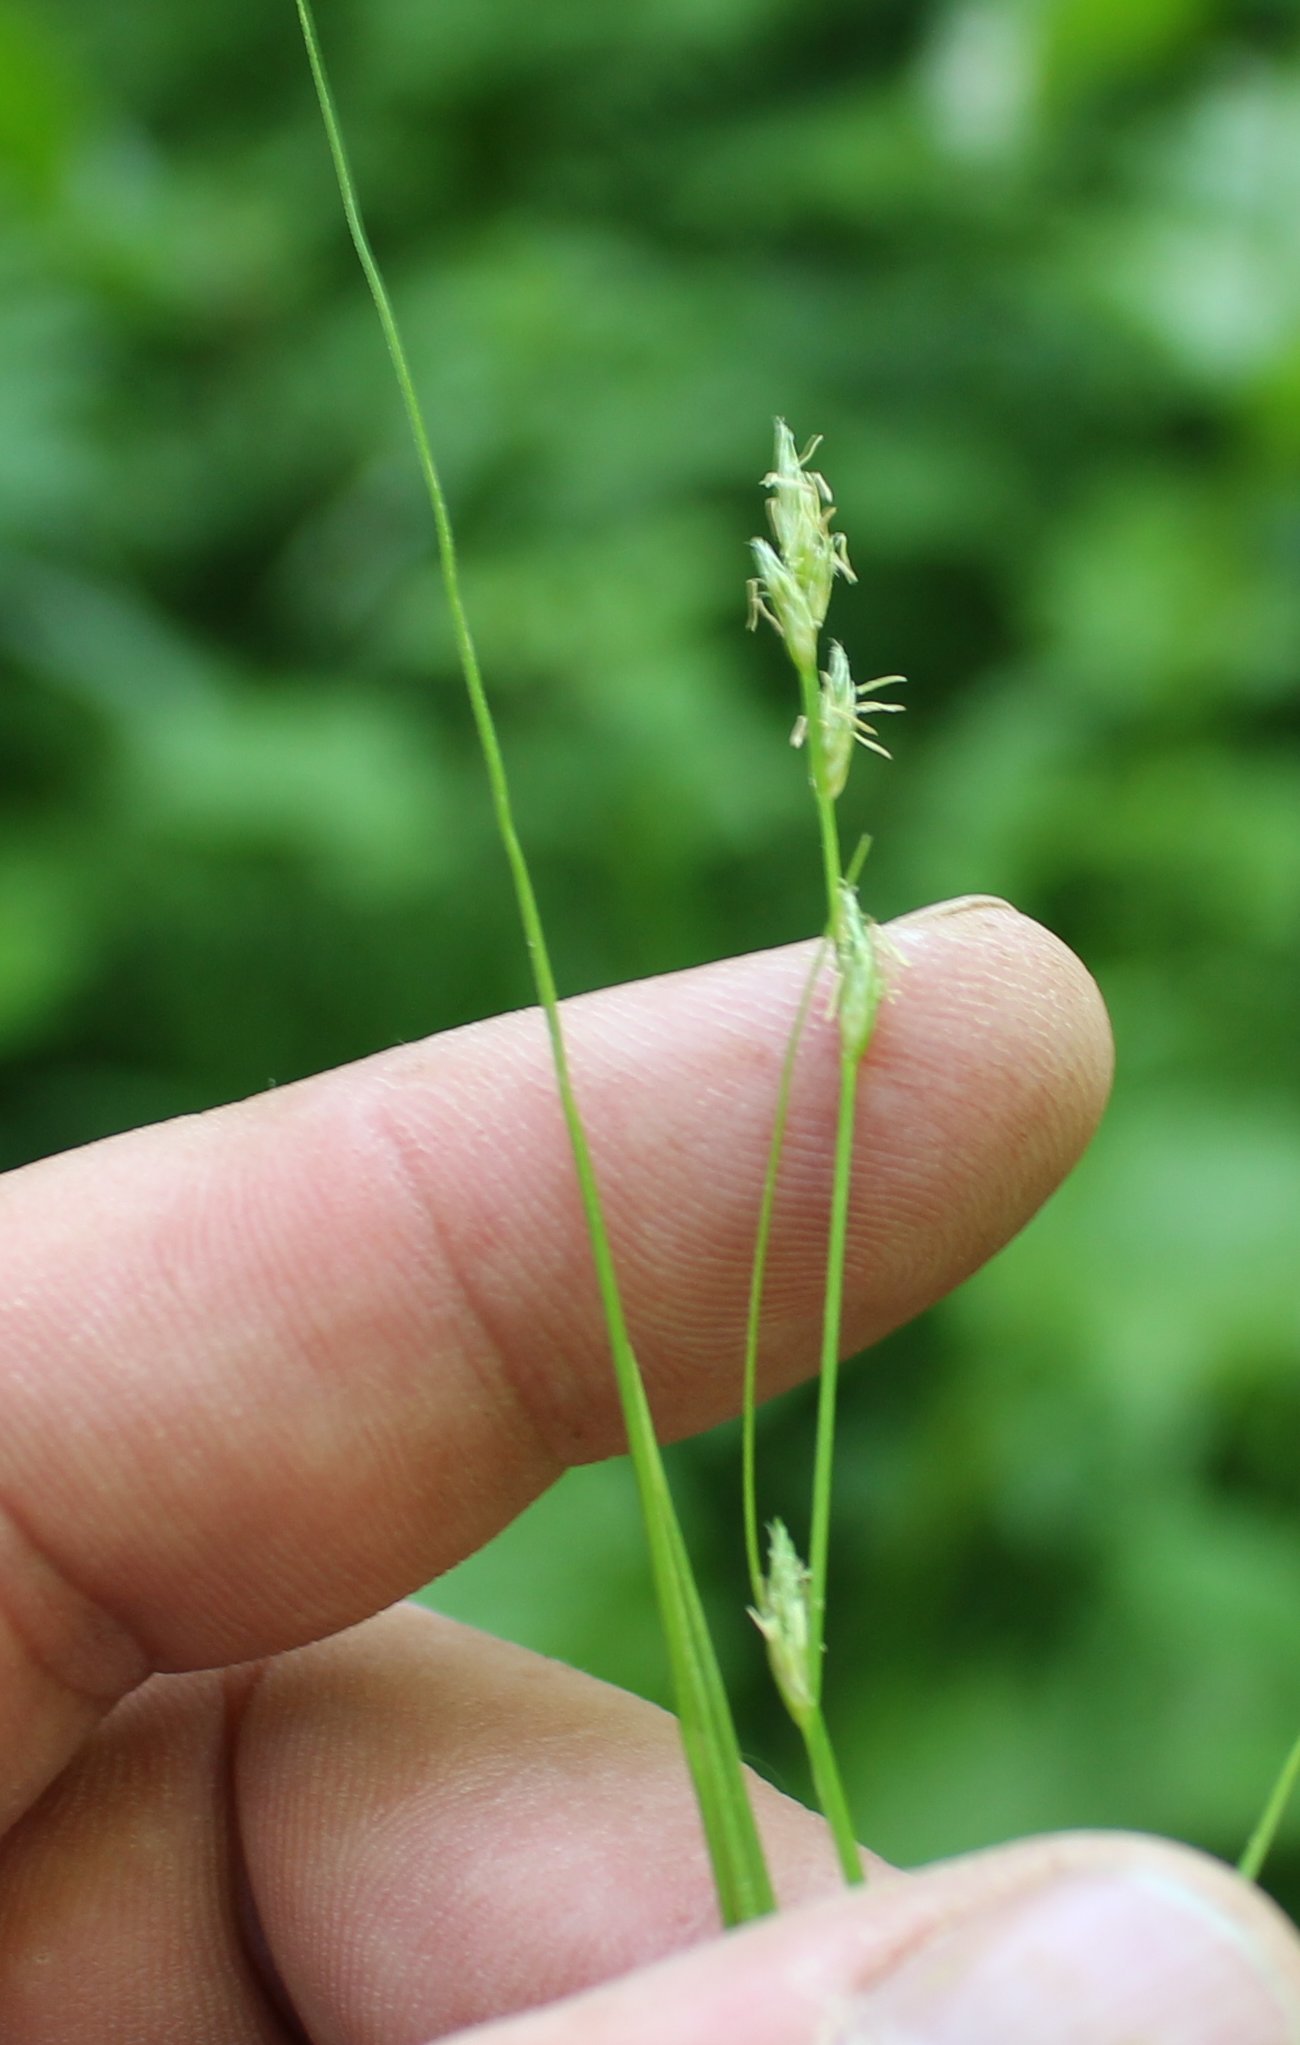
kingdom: Plantae
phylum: Tracheophyta
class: Liliopsida
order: Poales
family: Cyperaceae
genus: Carex
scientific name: Carex remota
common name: Remote sedge
